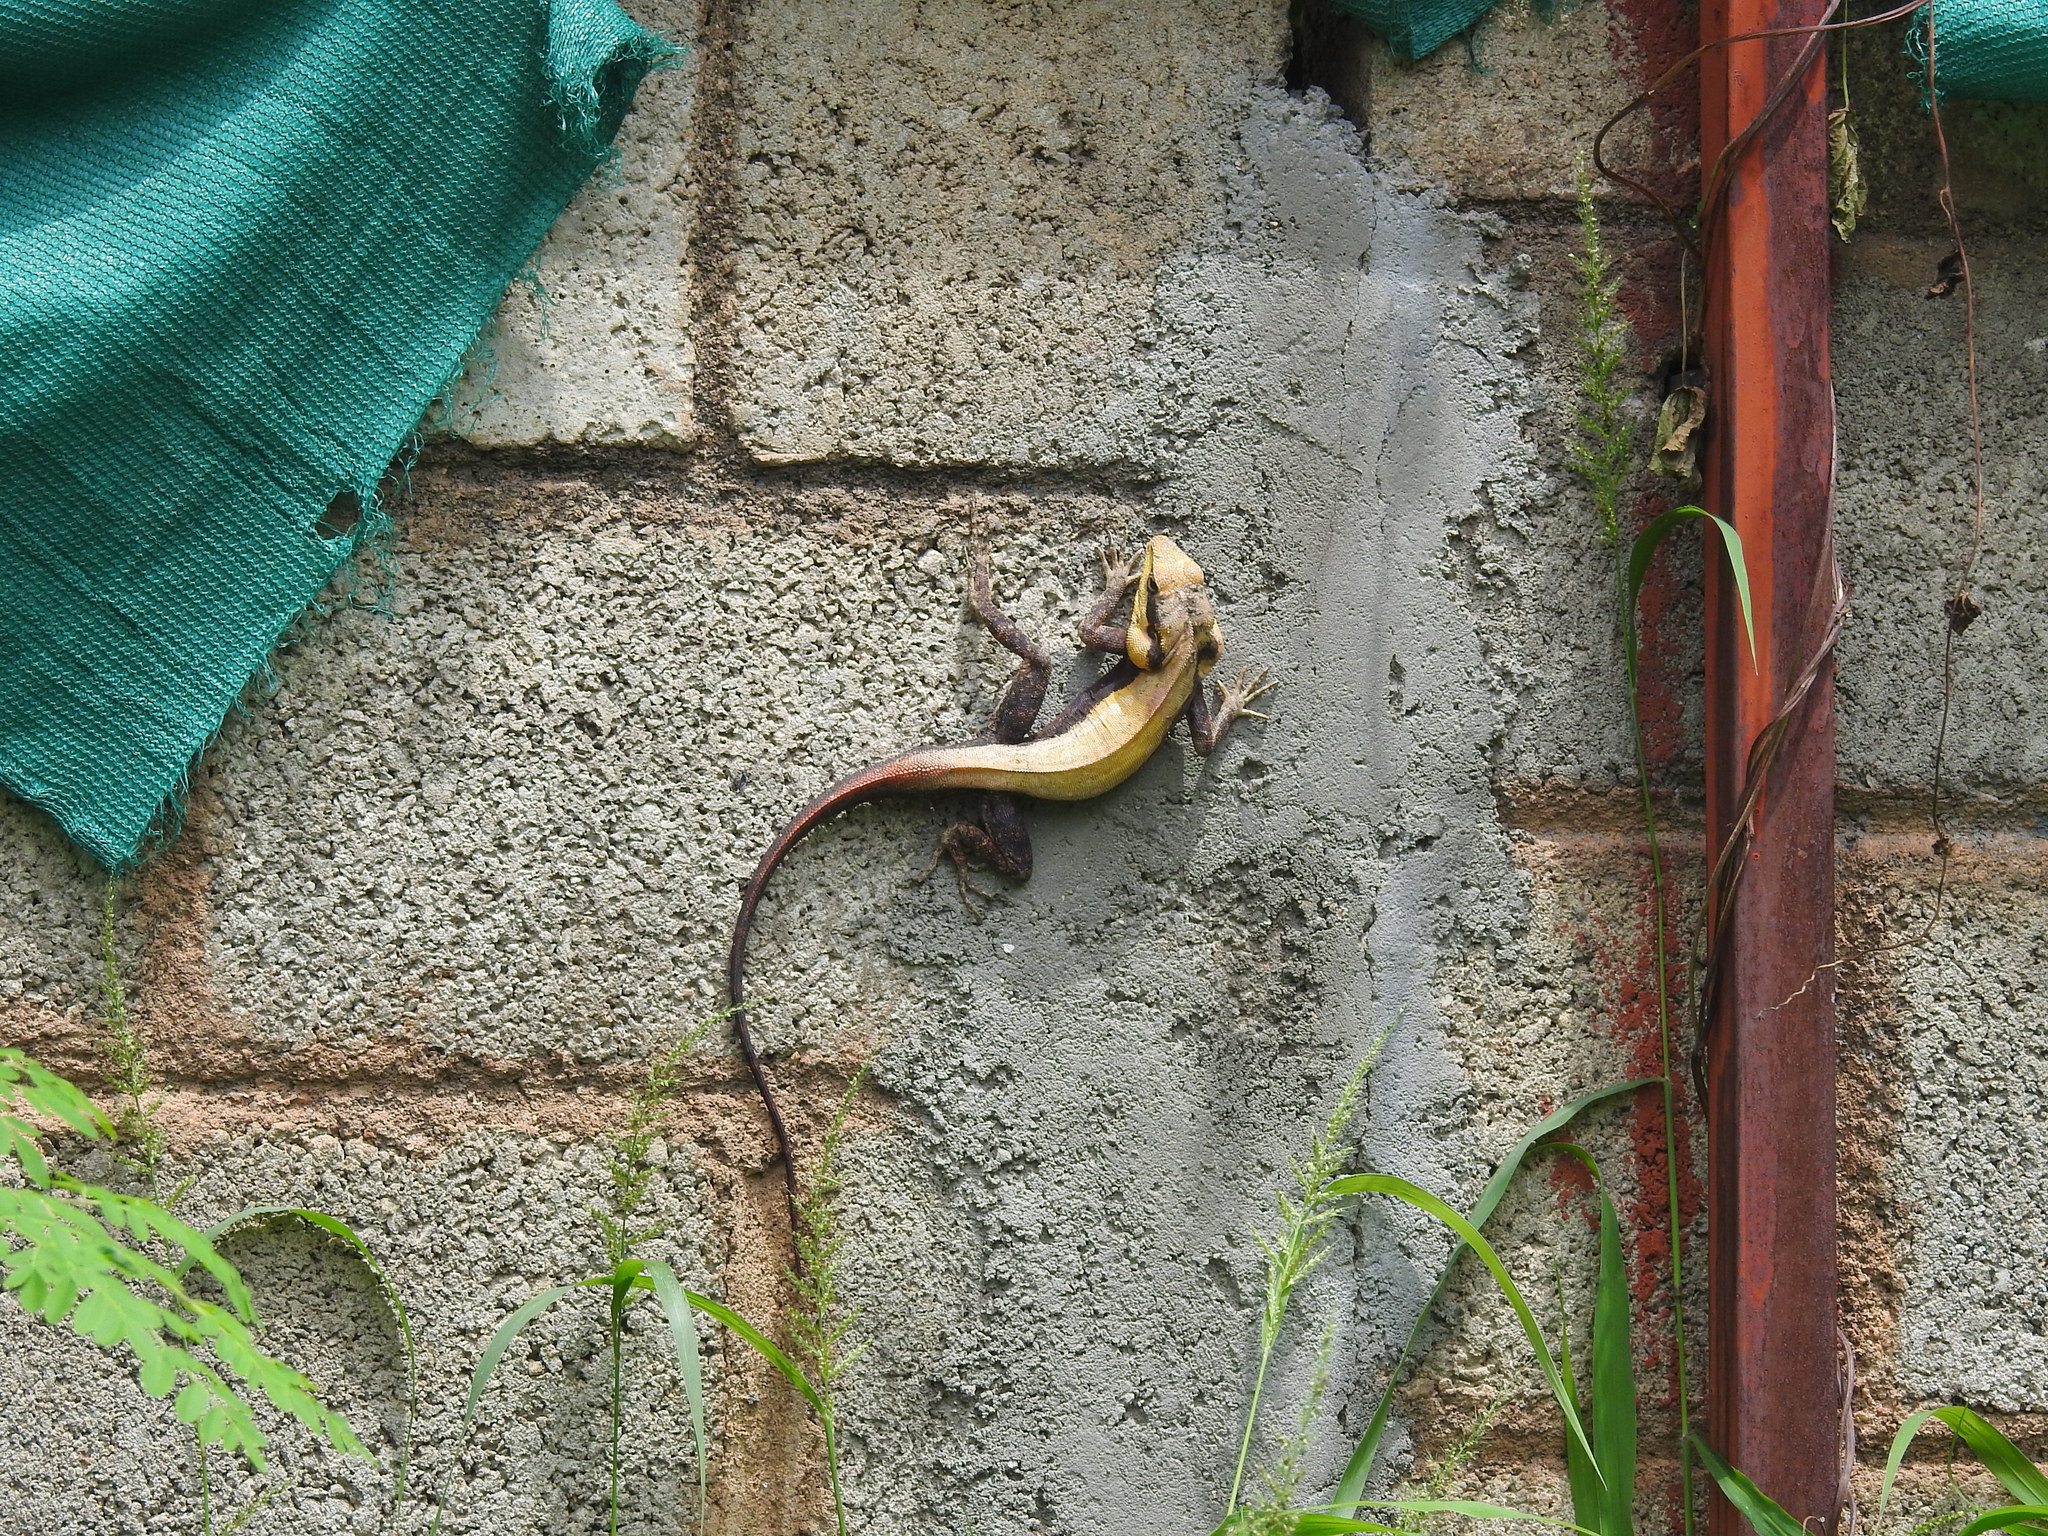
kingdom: Animalia
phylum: Chordata
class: Squamata
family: Agamidae
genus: Psammophilus
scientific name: Psammophilus dorsalis
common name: South indian rock agama
